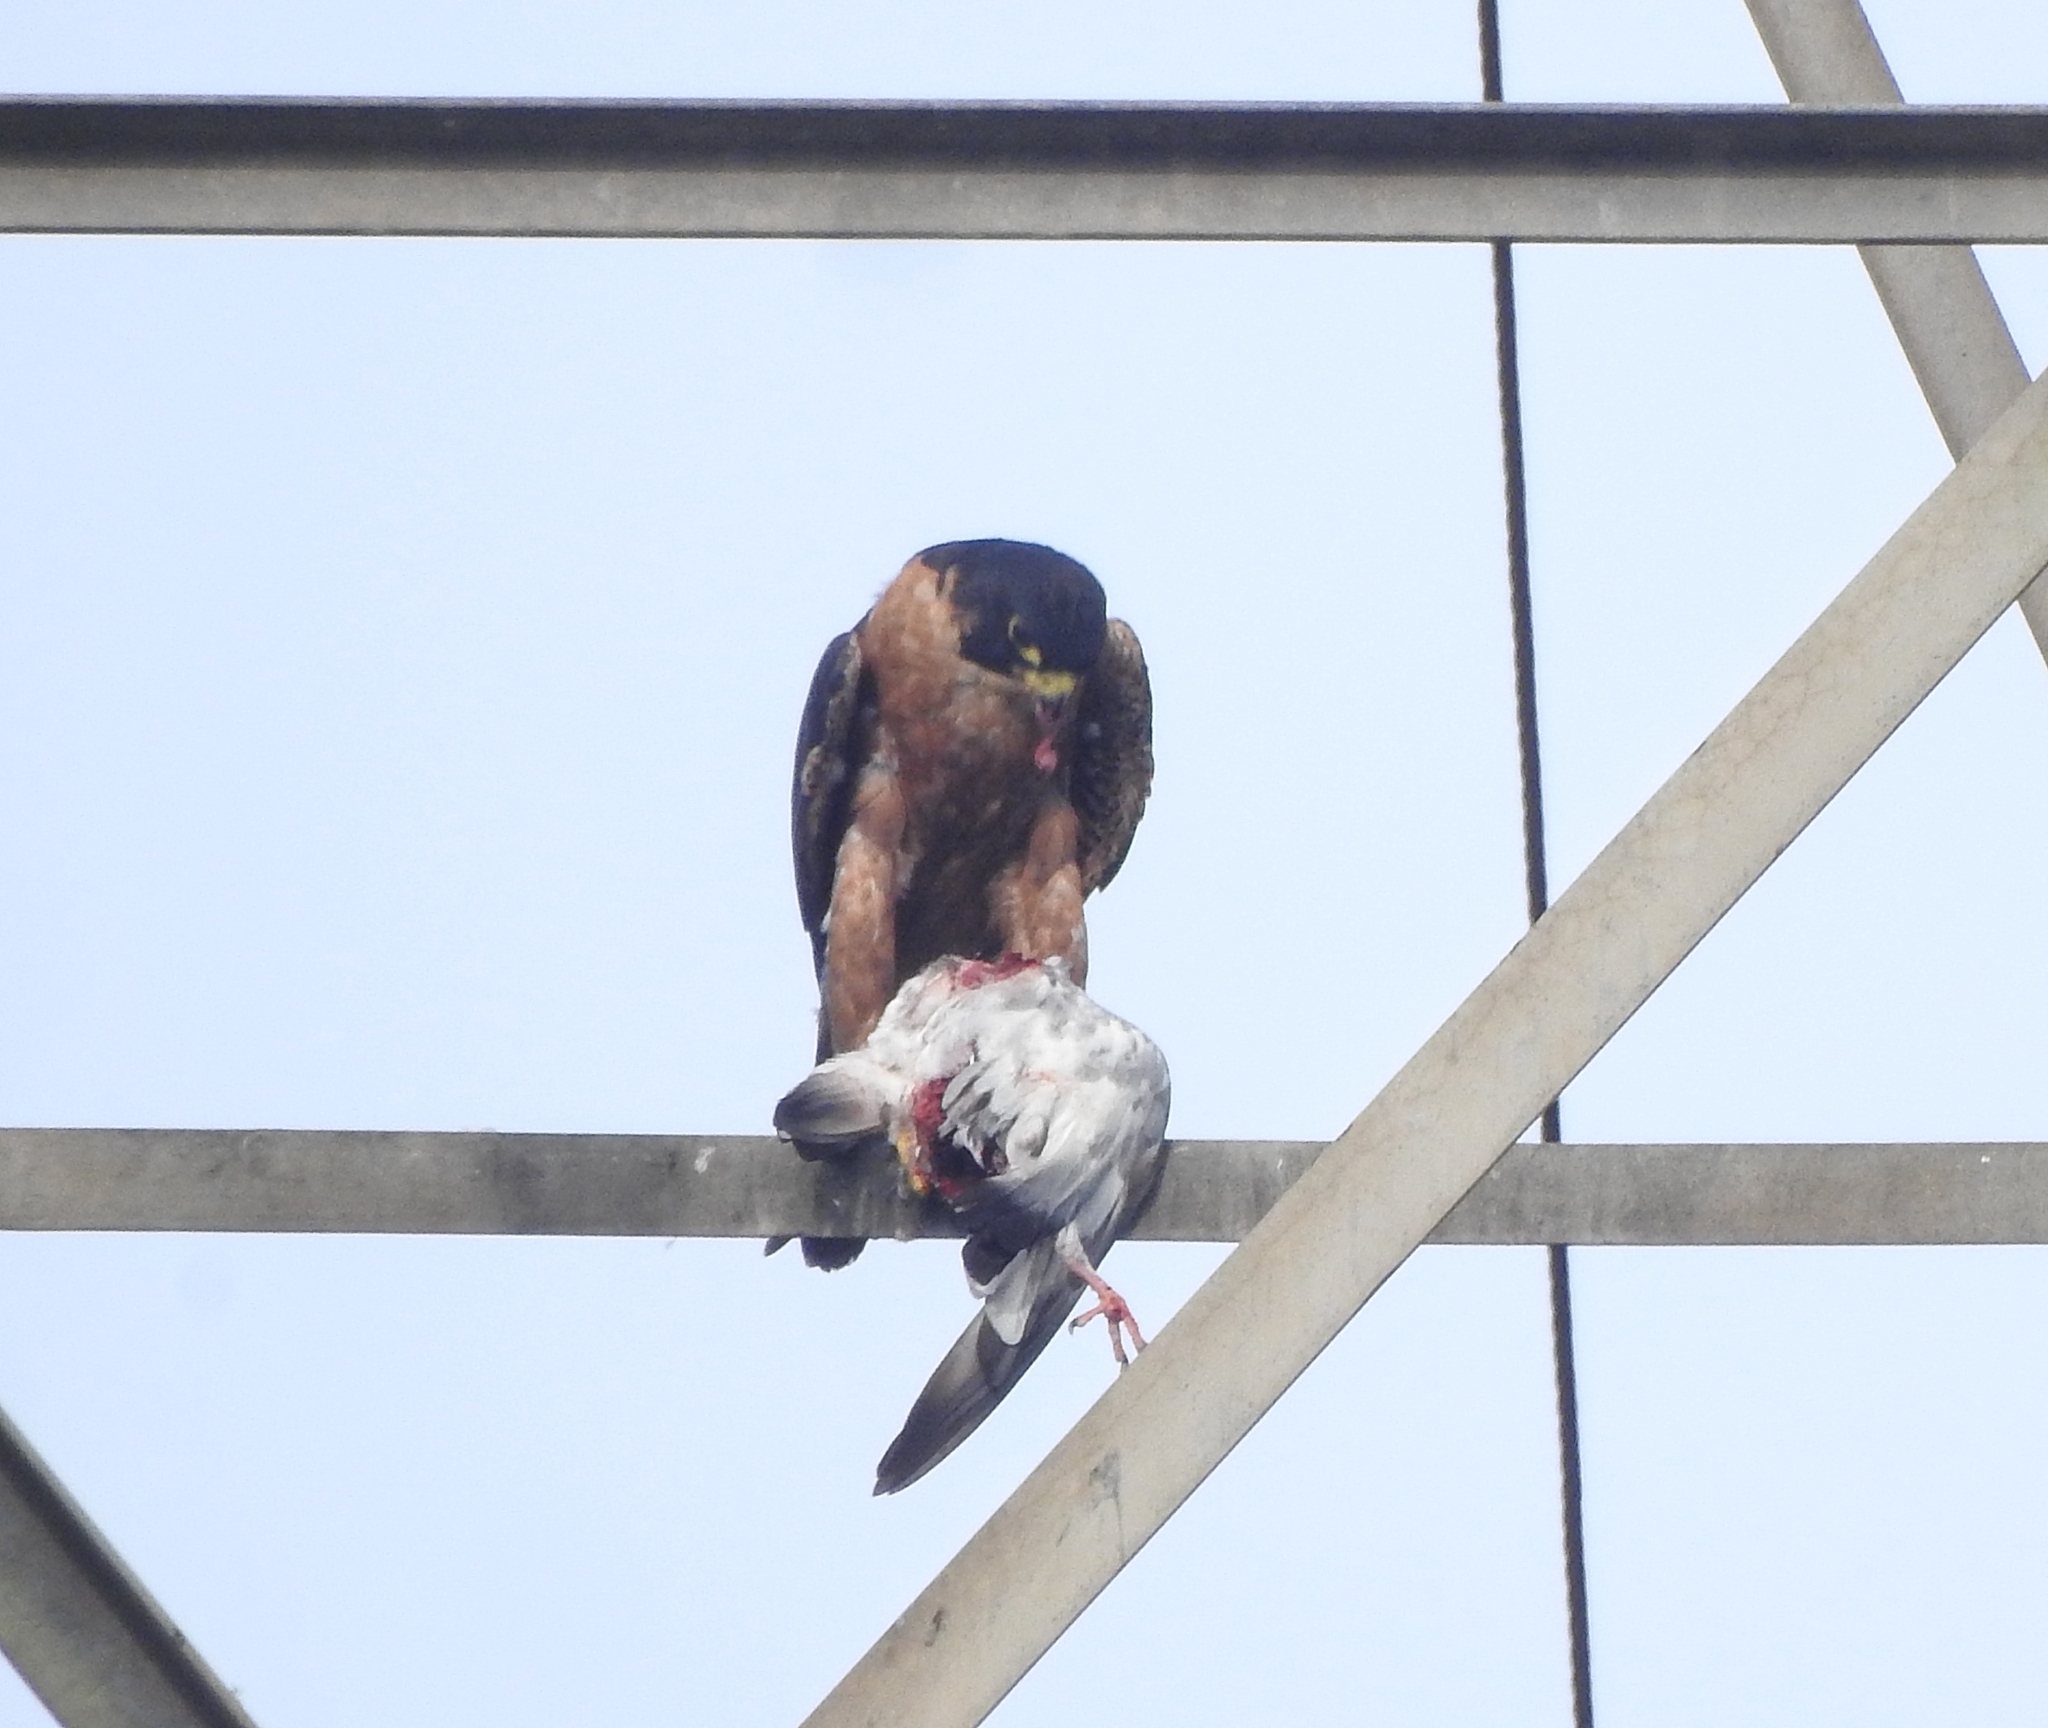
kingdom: Animalia
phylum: Chordata
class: Aves
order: Falconiformes
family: Falconidae
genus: Falco
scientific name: Falco peregrinus
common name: Peregrine falcon
